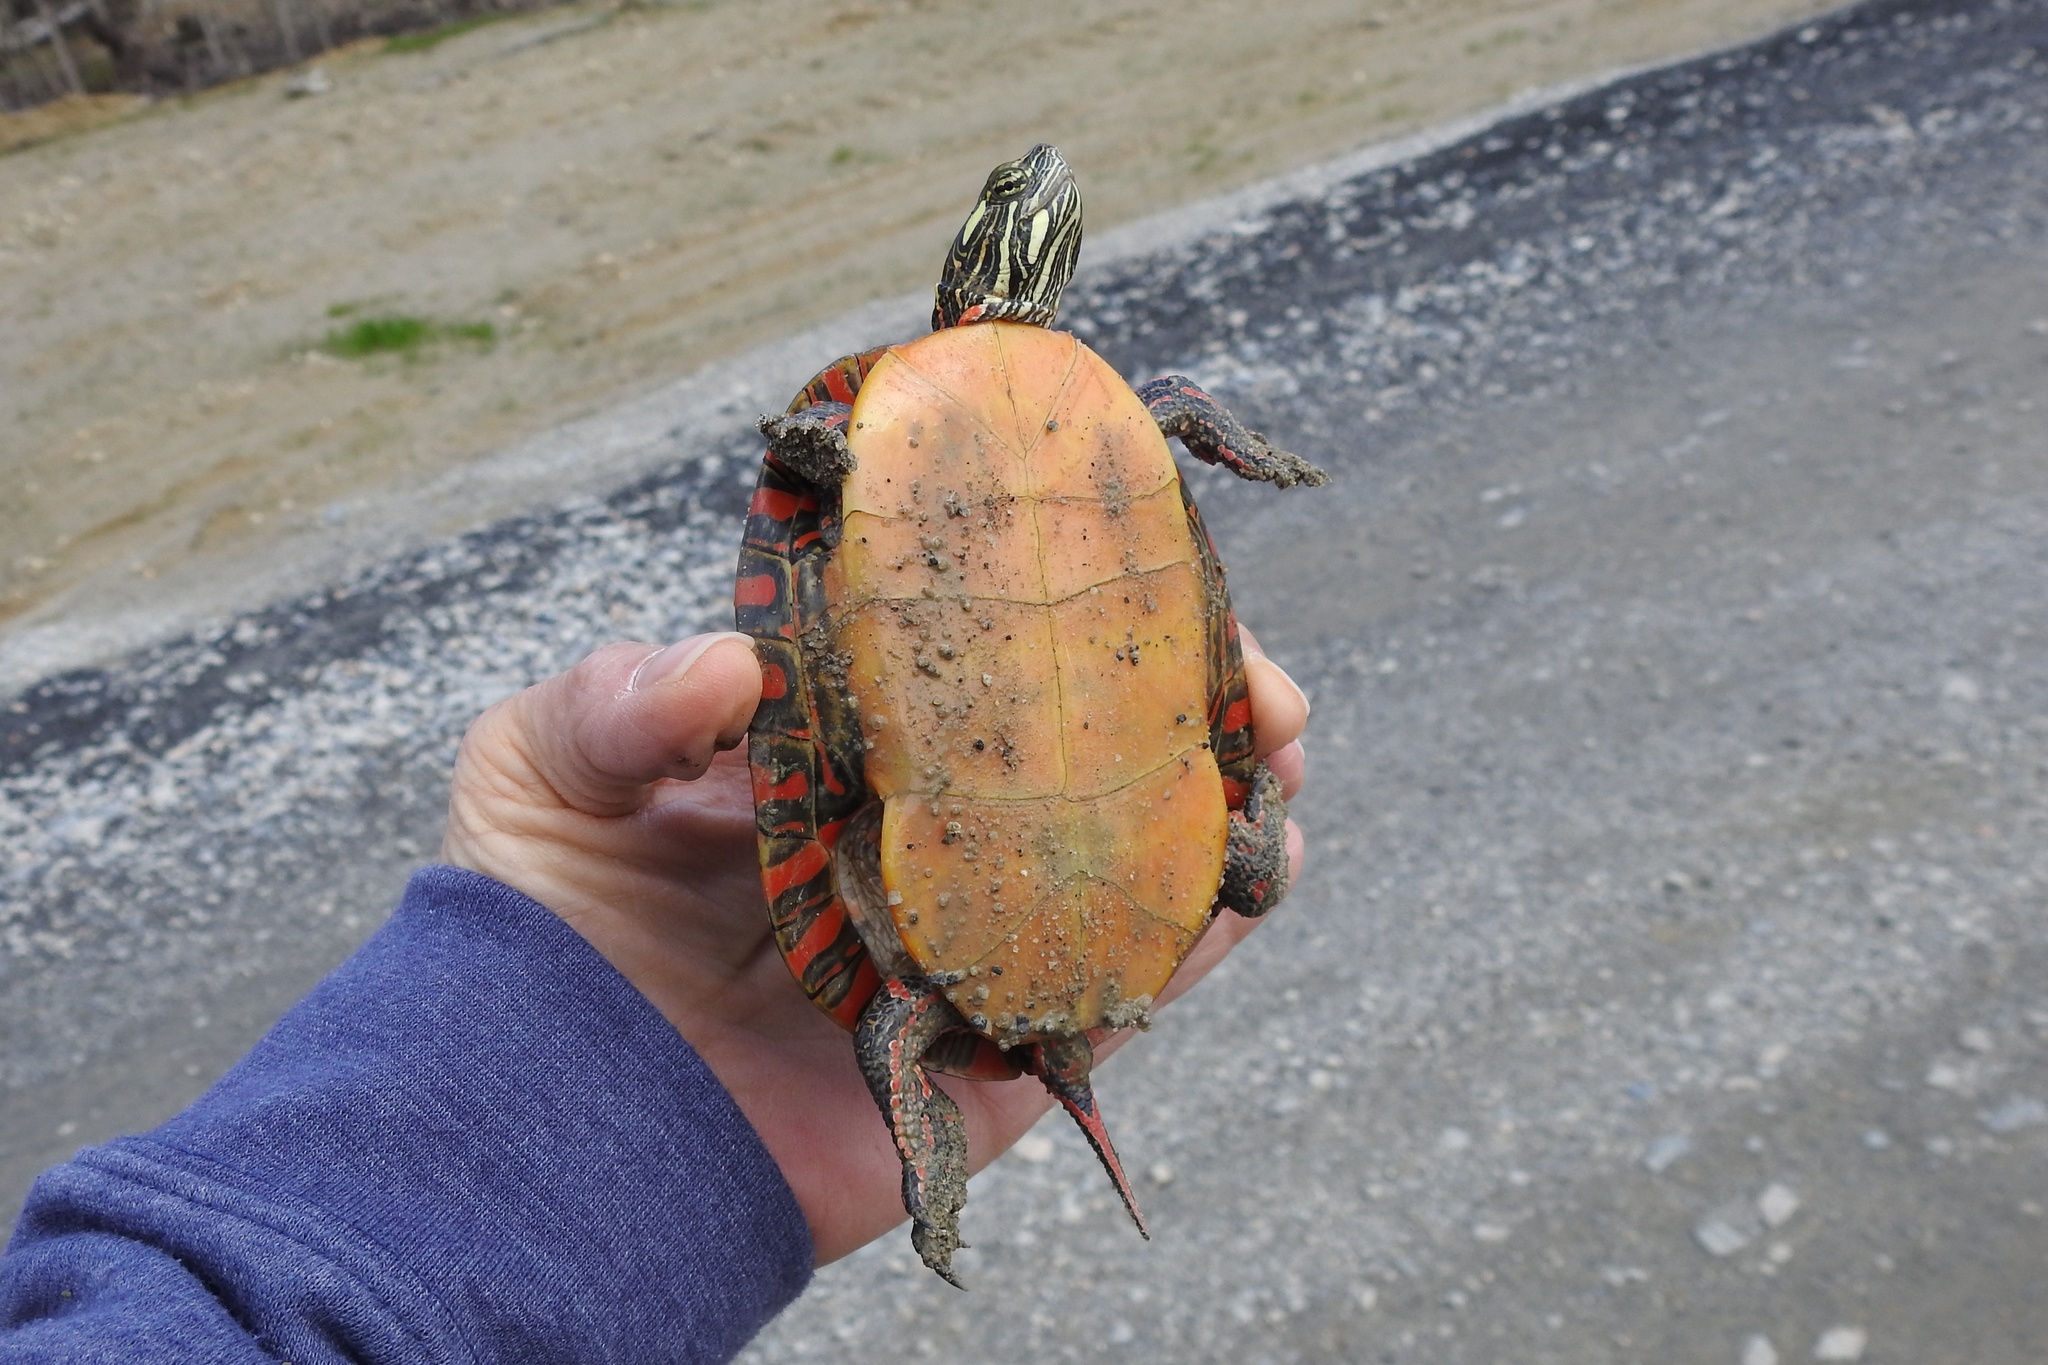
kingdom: Animalia
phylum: Chordata
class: Testudines
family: Emydidae
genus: Chrysemys
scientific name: Chrysemys picta
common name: Painted turtle
